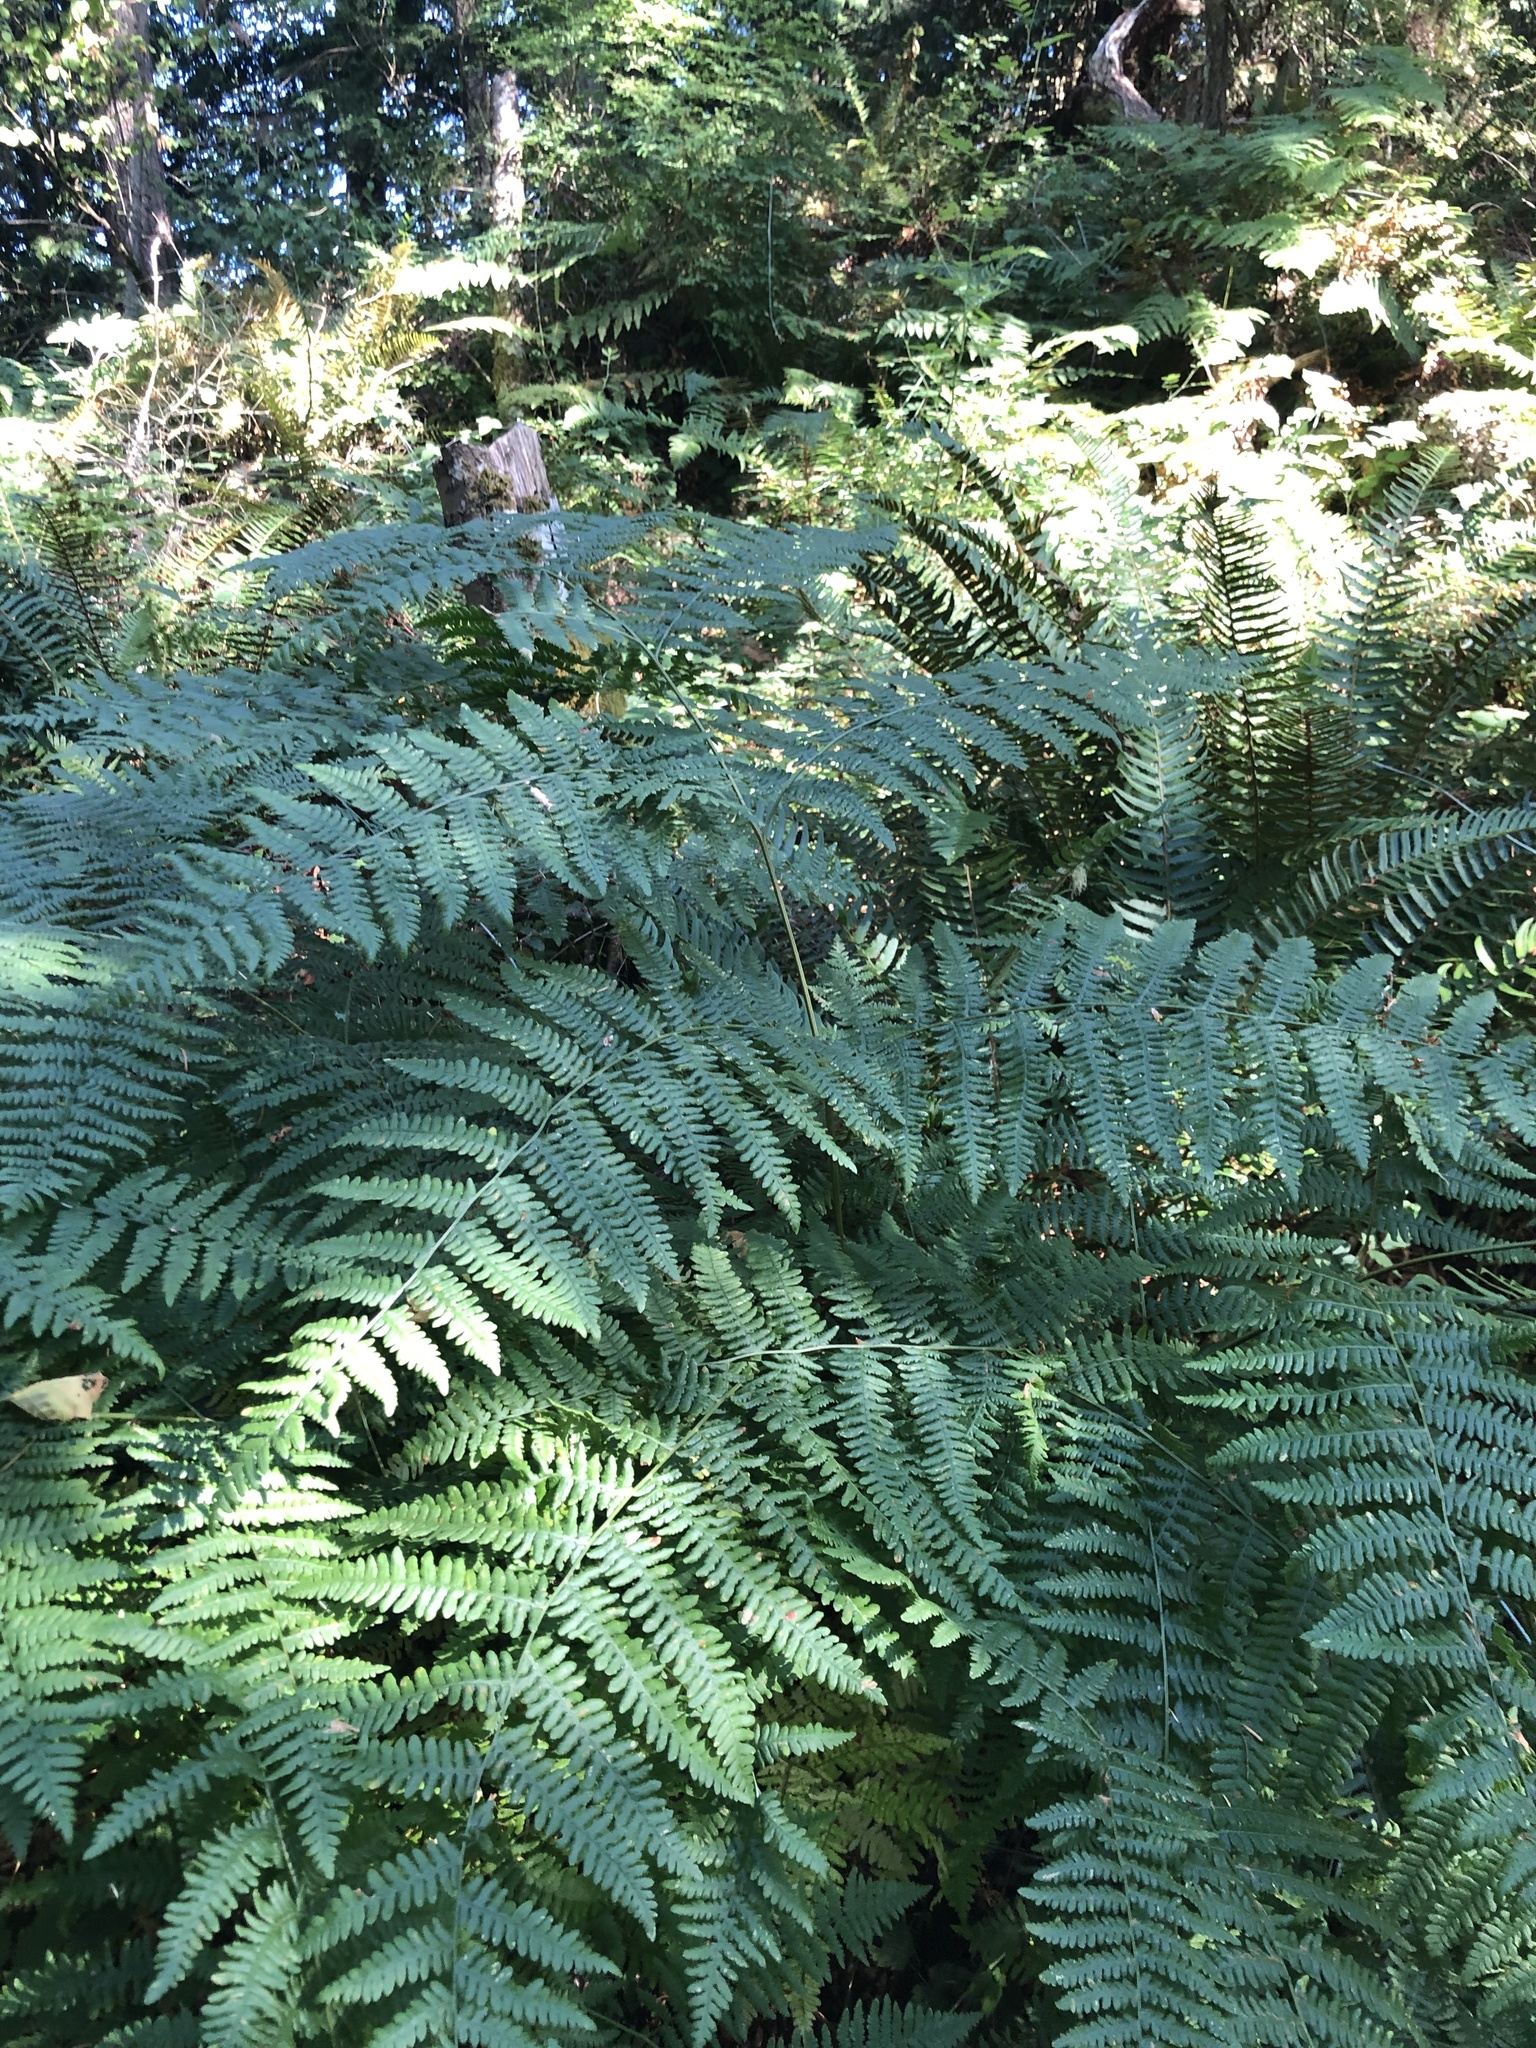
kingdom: Plantae
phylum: Tracheophyta
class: Polypodiopsida
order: Polypodiales
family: Dennstaedtiaceae
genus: Pteridium
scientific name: Pteridium aquilinum
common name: Bracken
